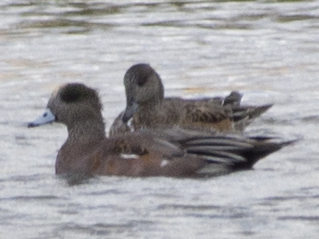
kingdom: Animalia
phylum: Chordata
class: Aves
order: Anseriformes
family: Anatidae
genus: Mareca
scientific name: Mareca americana
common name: American wigeon
